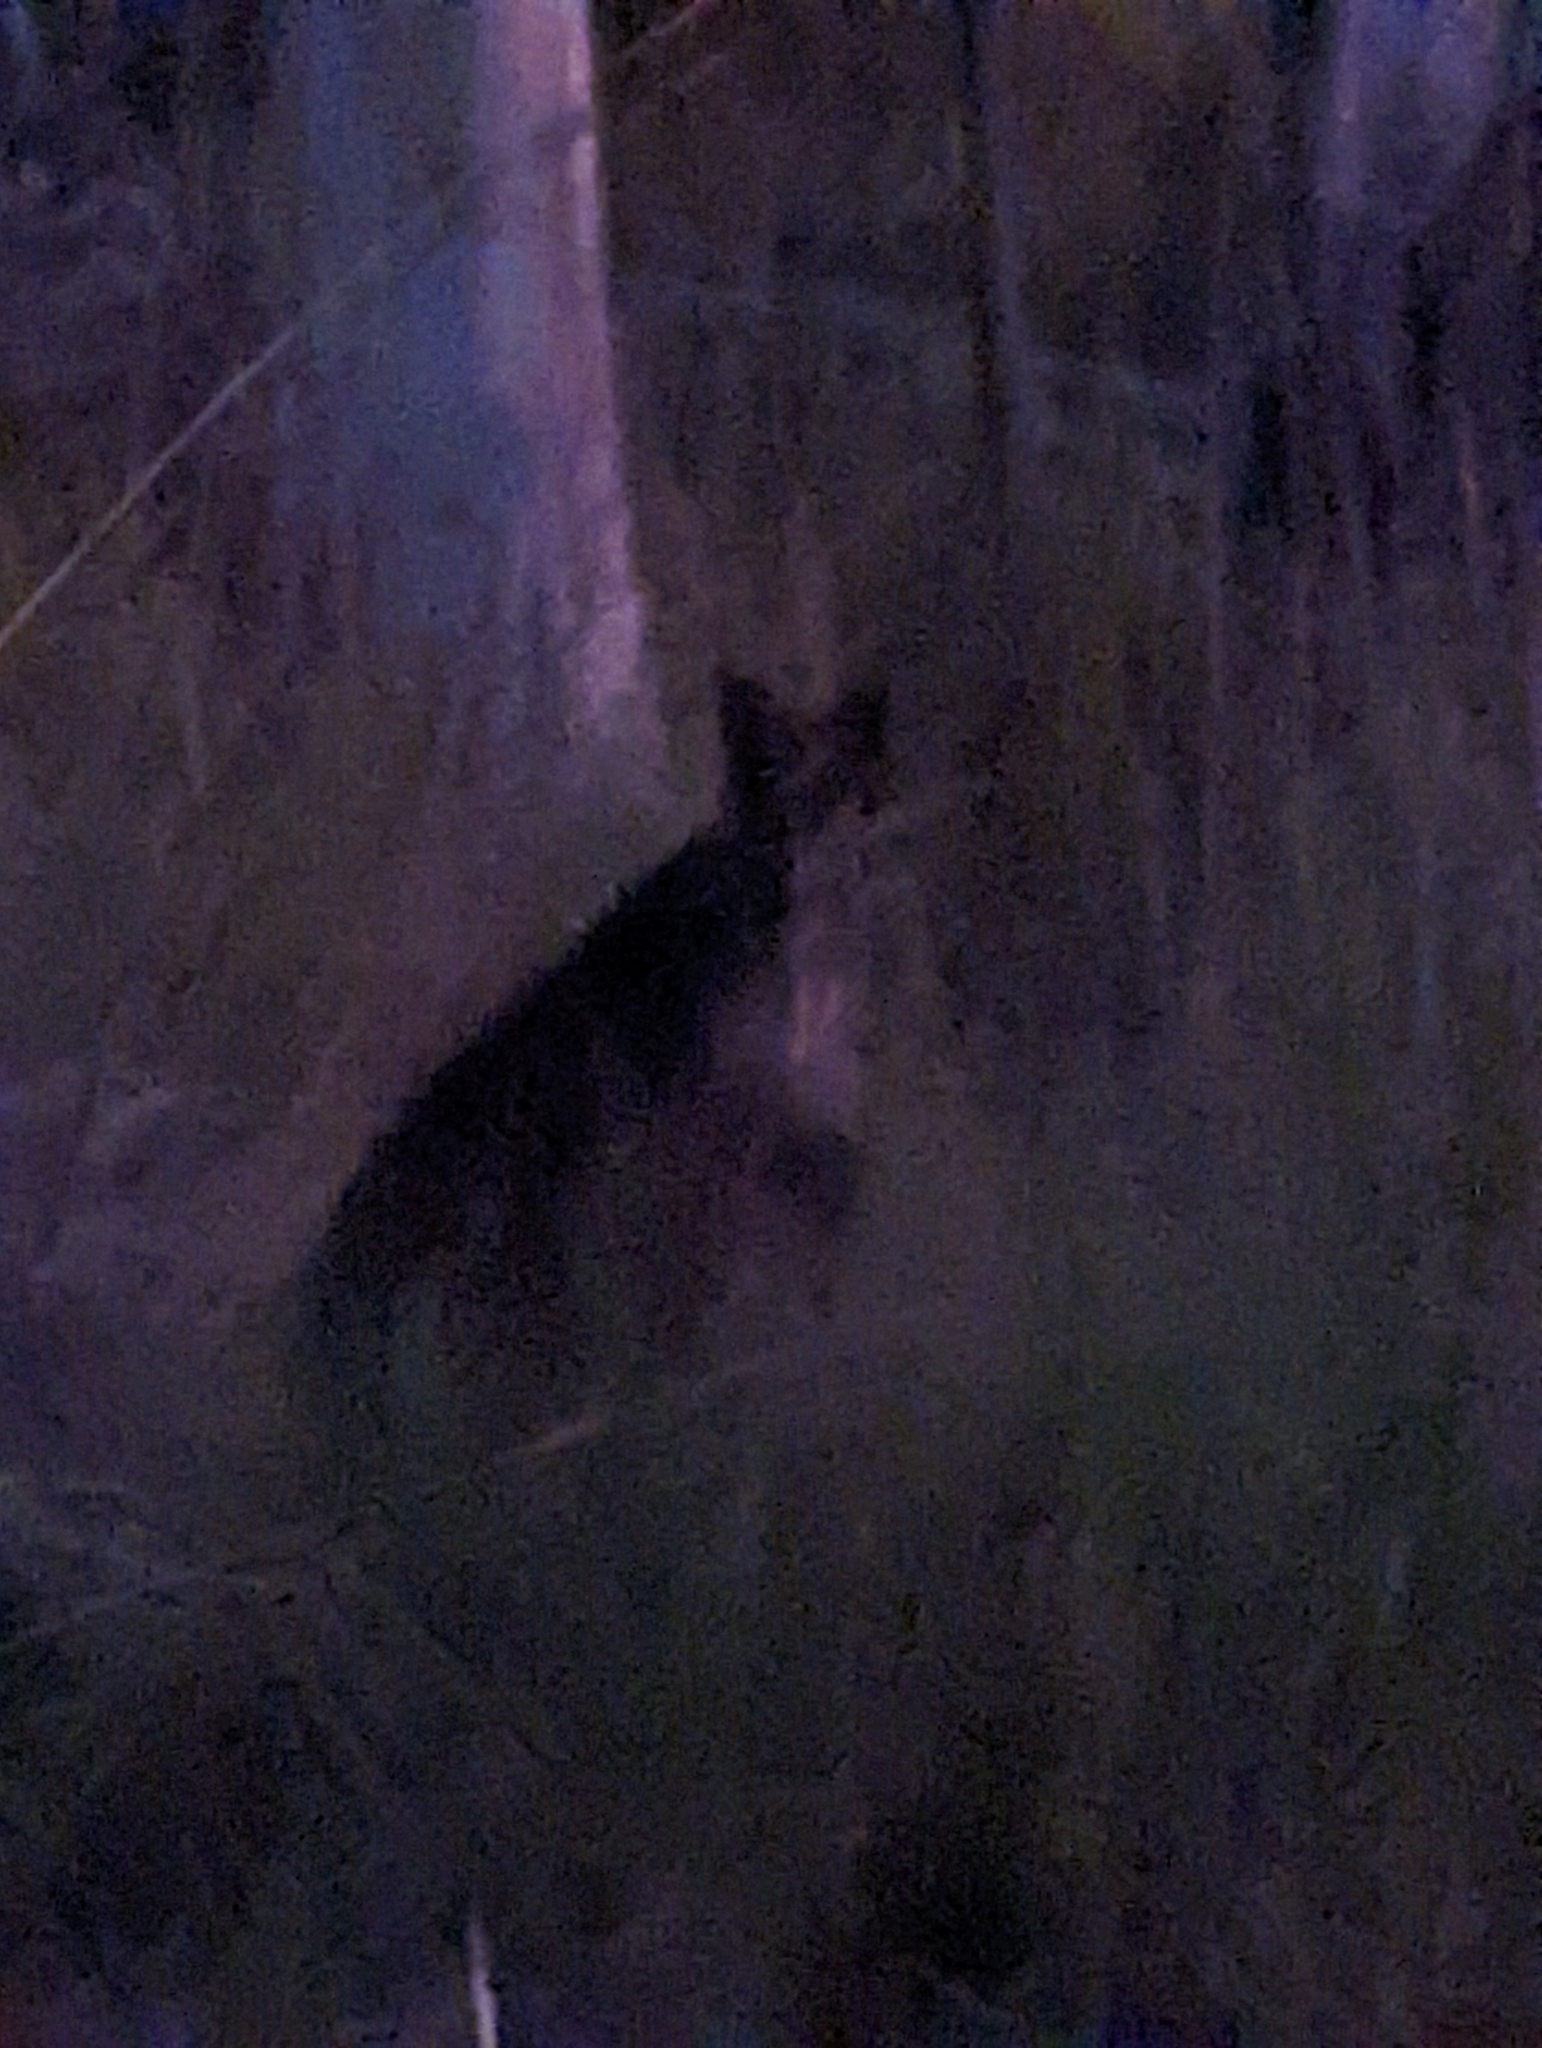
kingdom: Animalia
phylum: Chordata
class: Mammalia
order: Diprotodontia
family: Macropodidae
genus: Wallabia
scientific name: Wallabia bicolor
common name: Swamp wallaby
